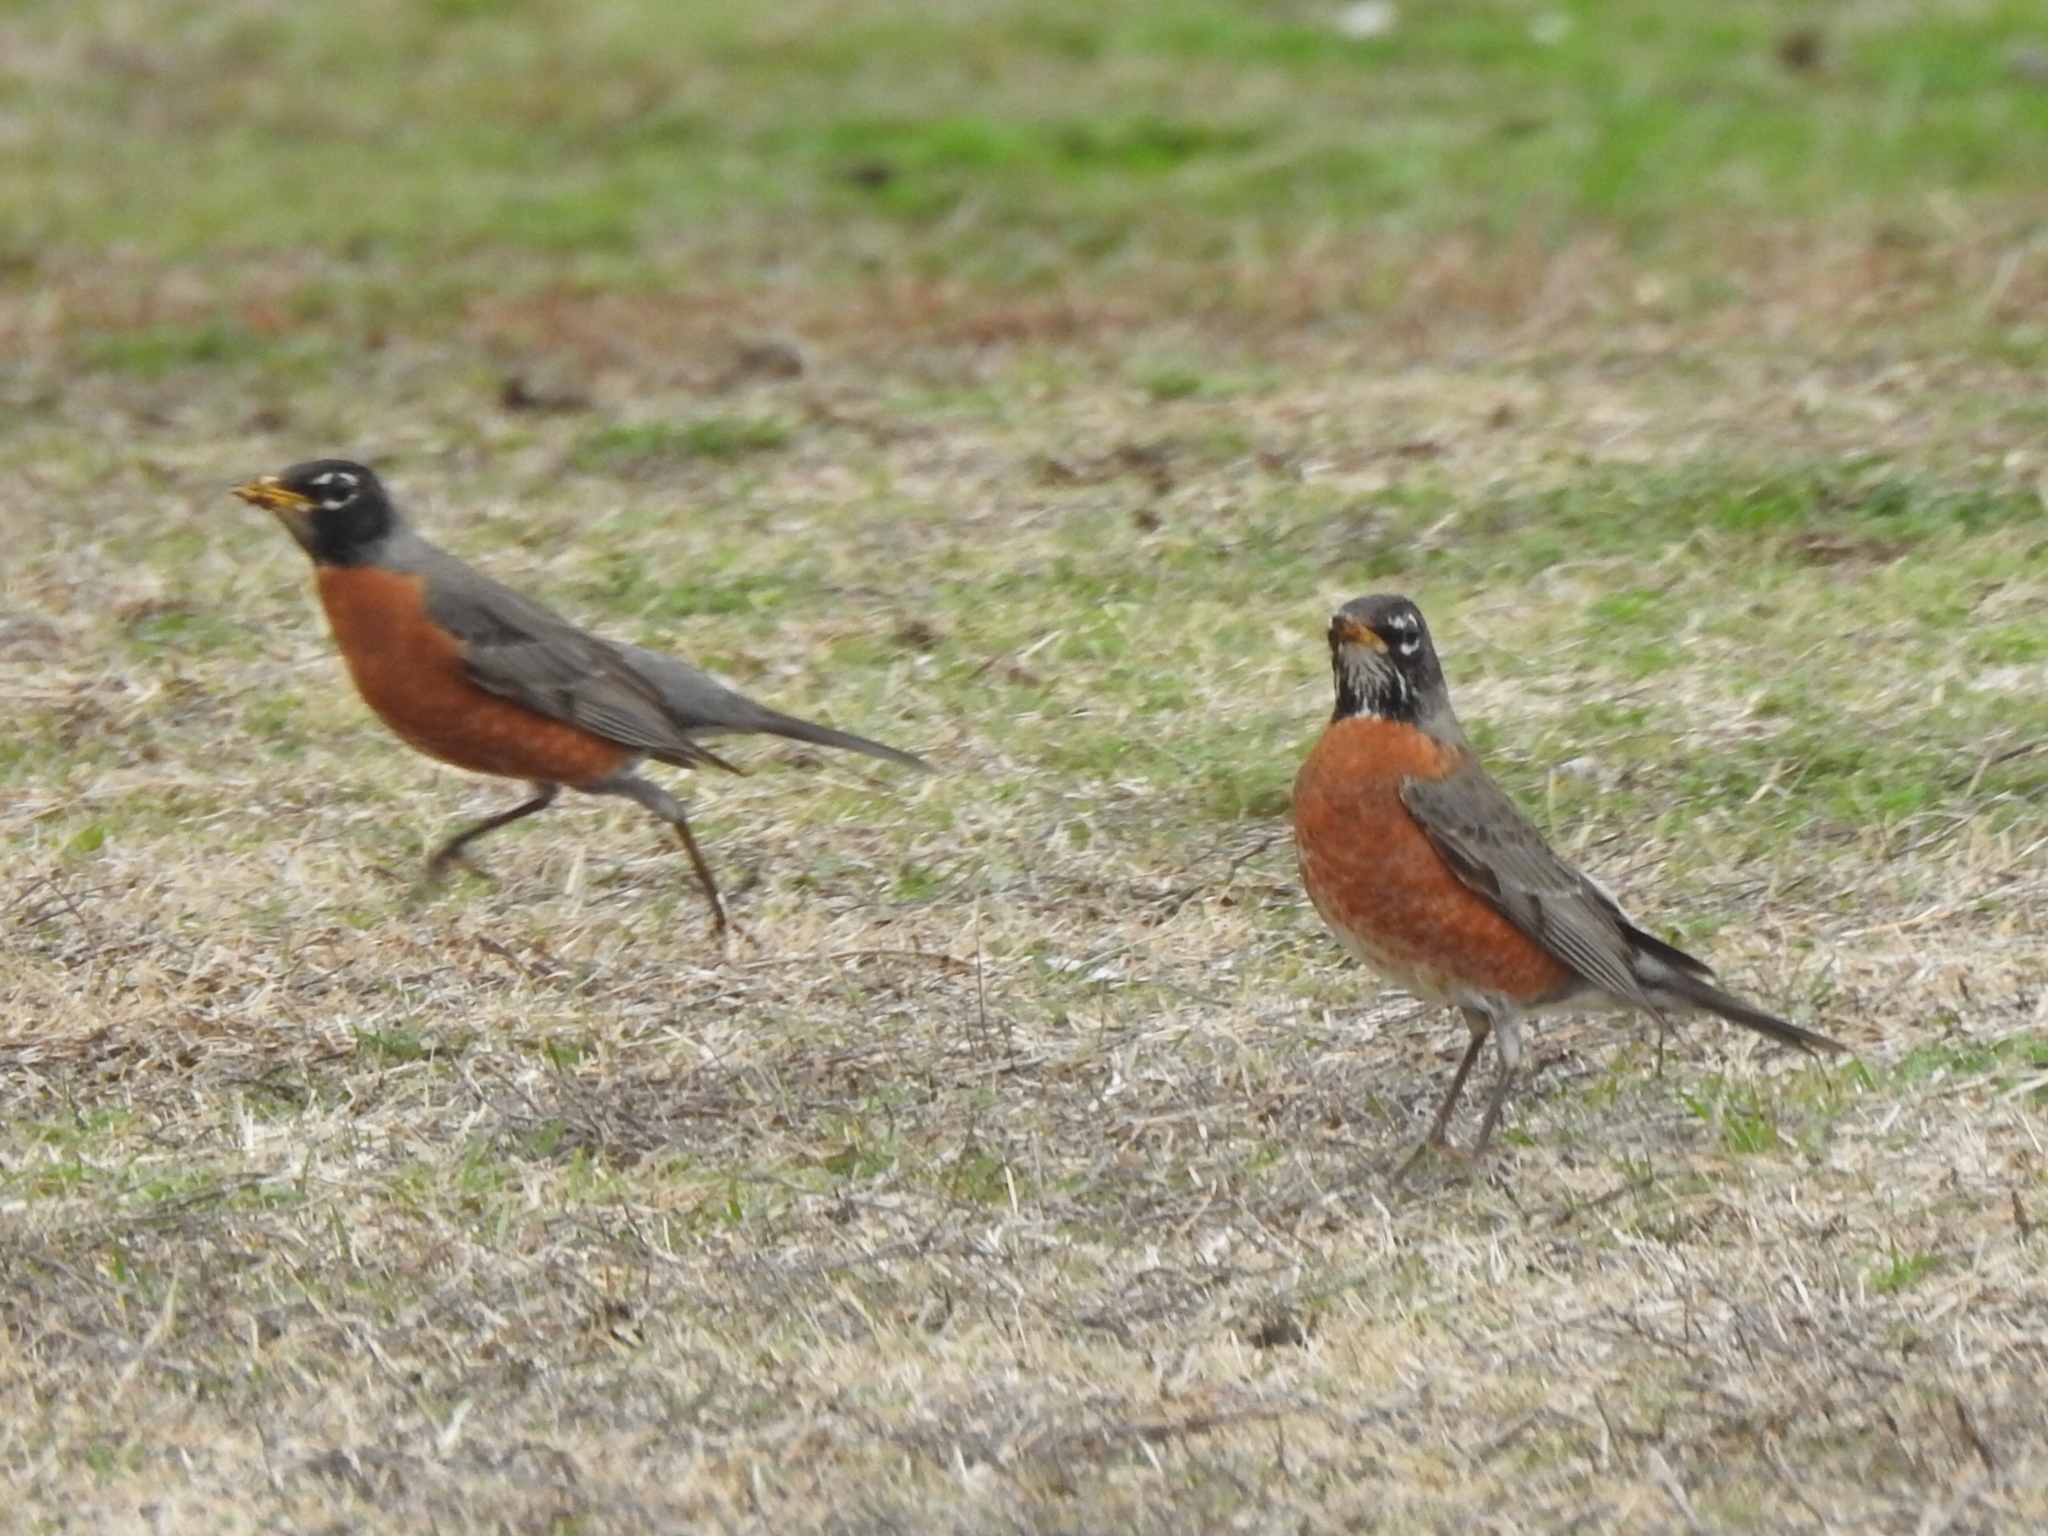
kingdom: Animalia
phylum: Chordata
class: Aves
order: Passeriformes
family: Turdidae
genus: Turdus
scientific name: Turdus migratorius
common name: American robin
